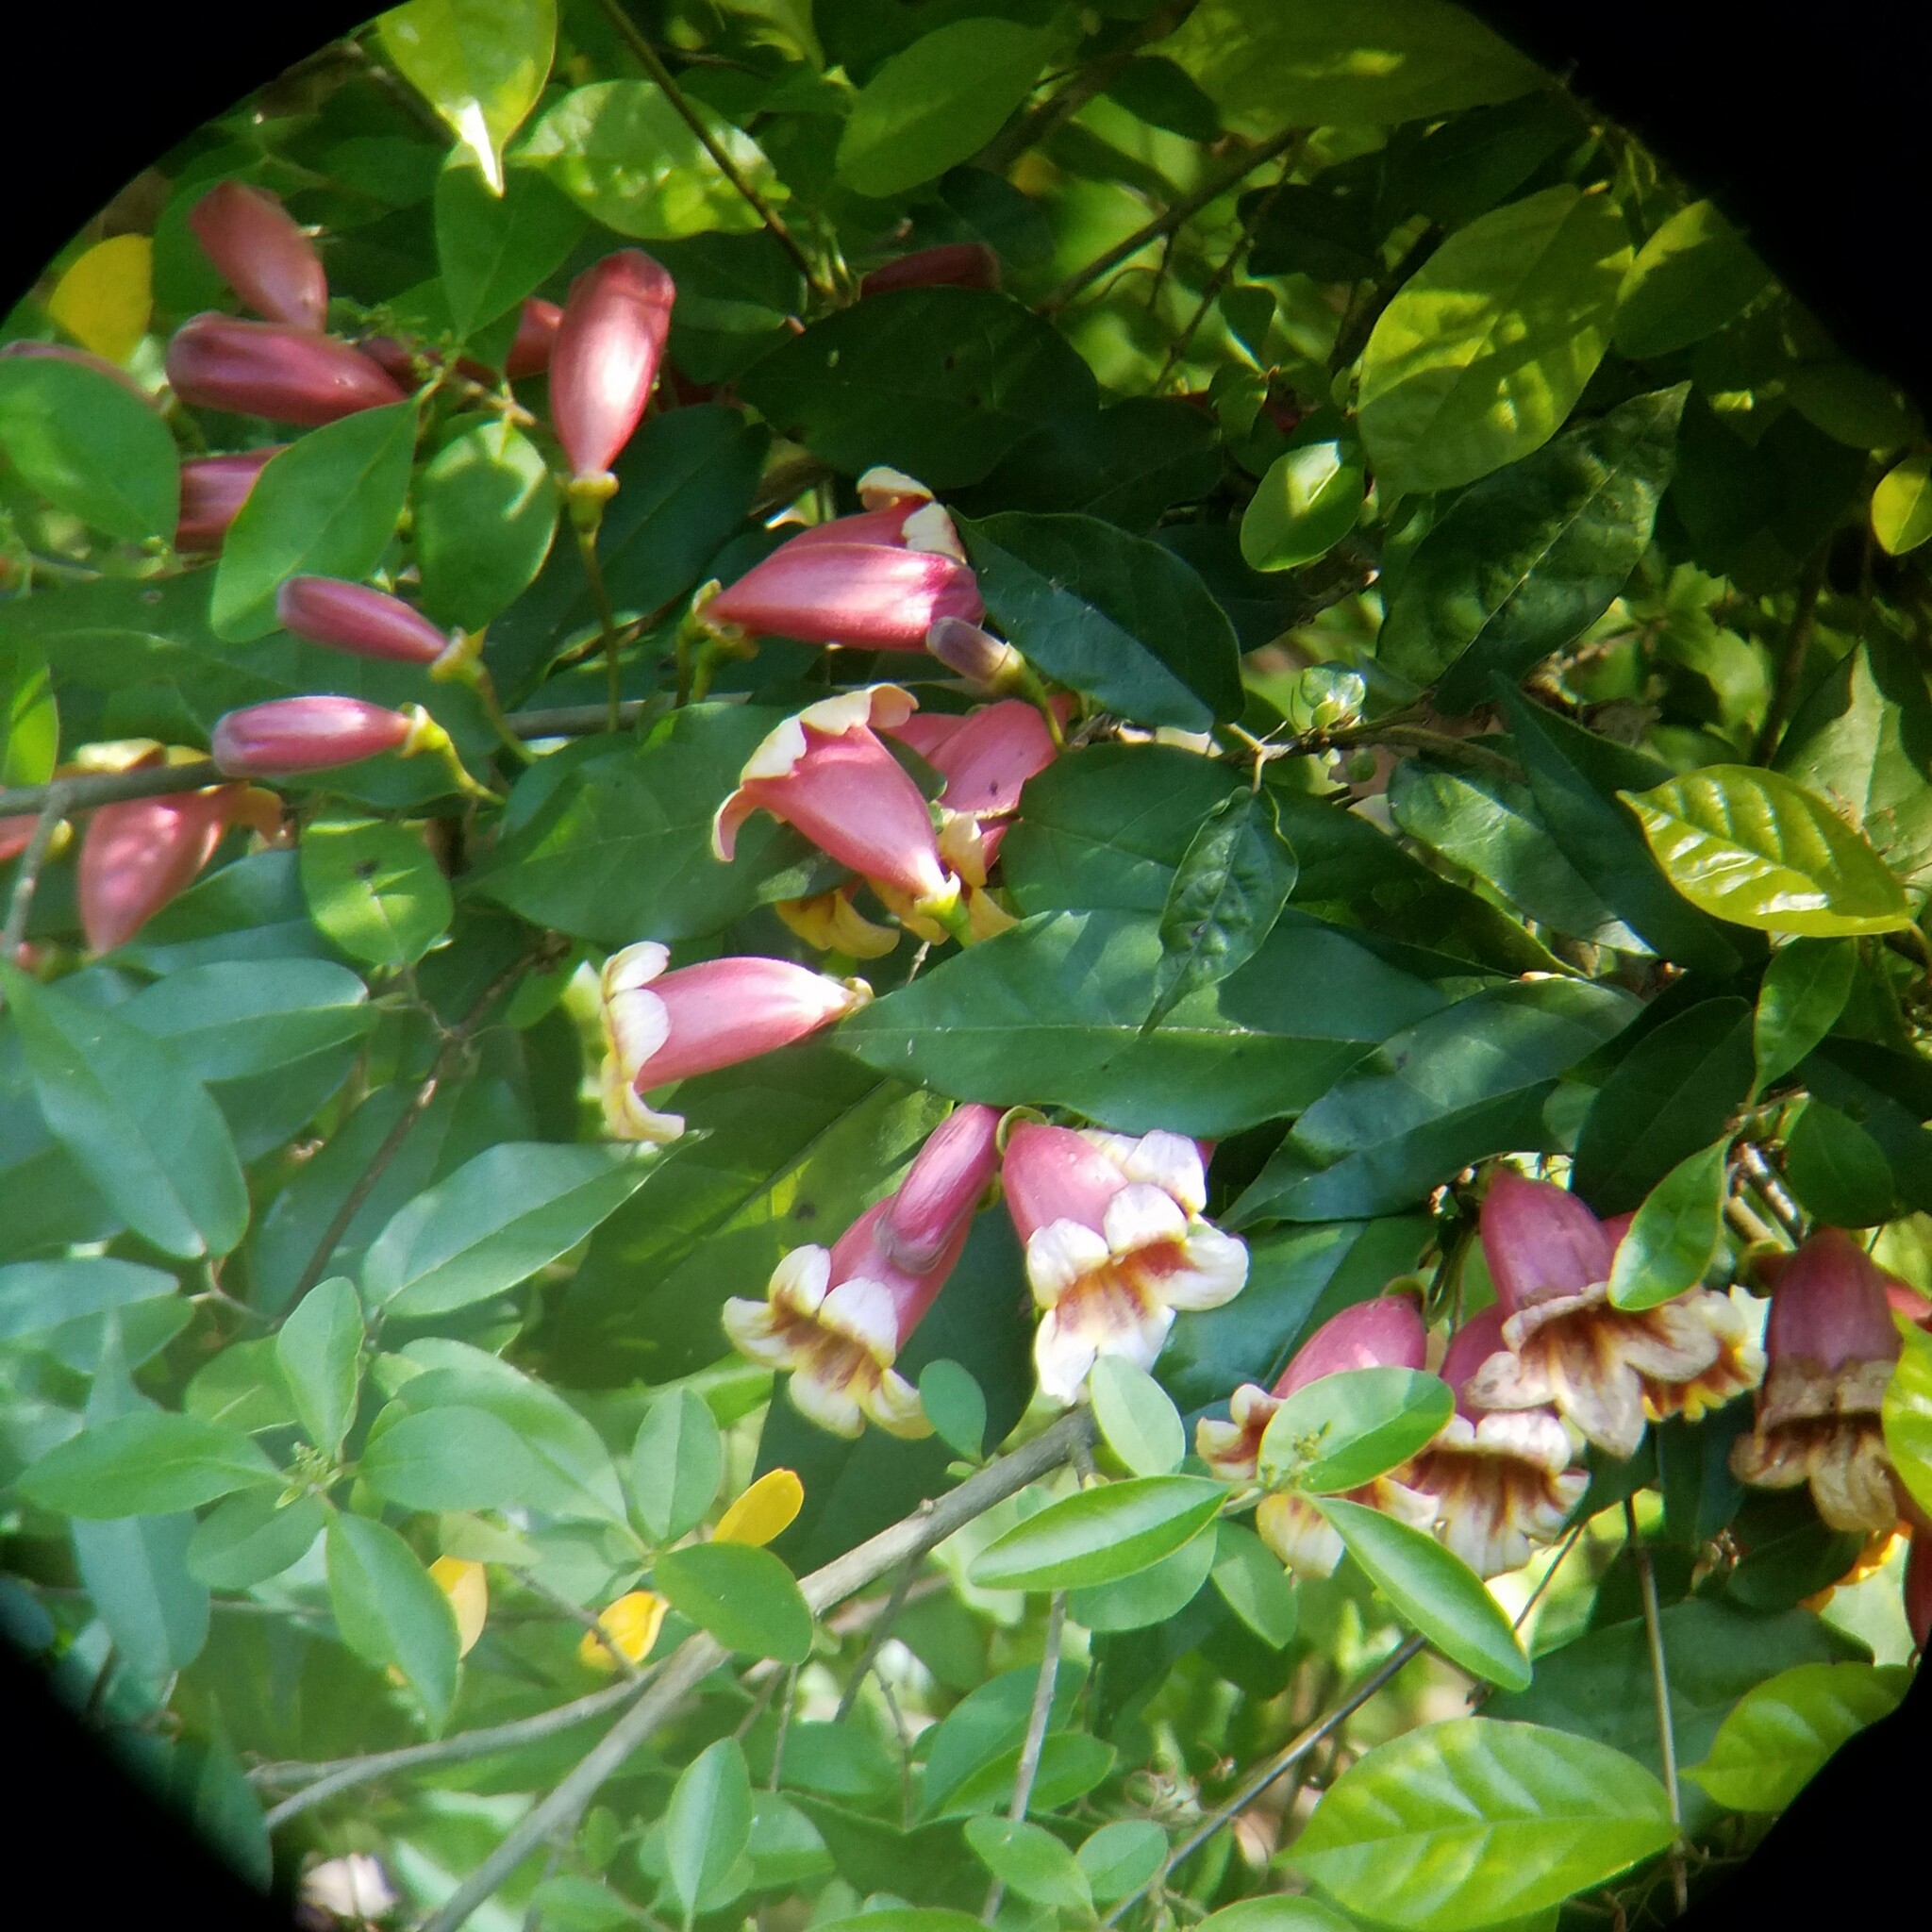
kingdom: Plantae
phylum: Tracheophyta
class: Magnoliopsida
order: Lamiales
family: Bignoniaceae
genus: Bignonia
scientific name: Bignonia capreolata
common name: Crossvine
